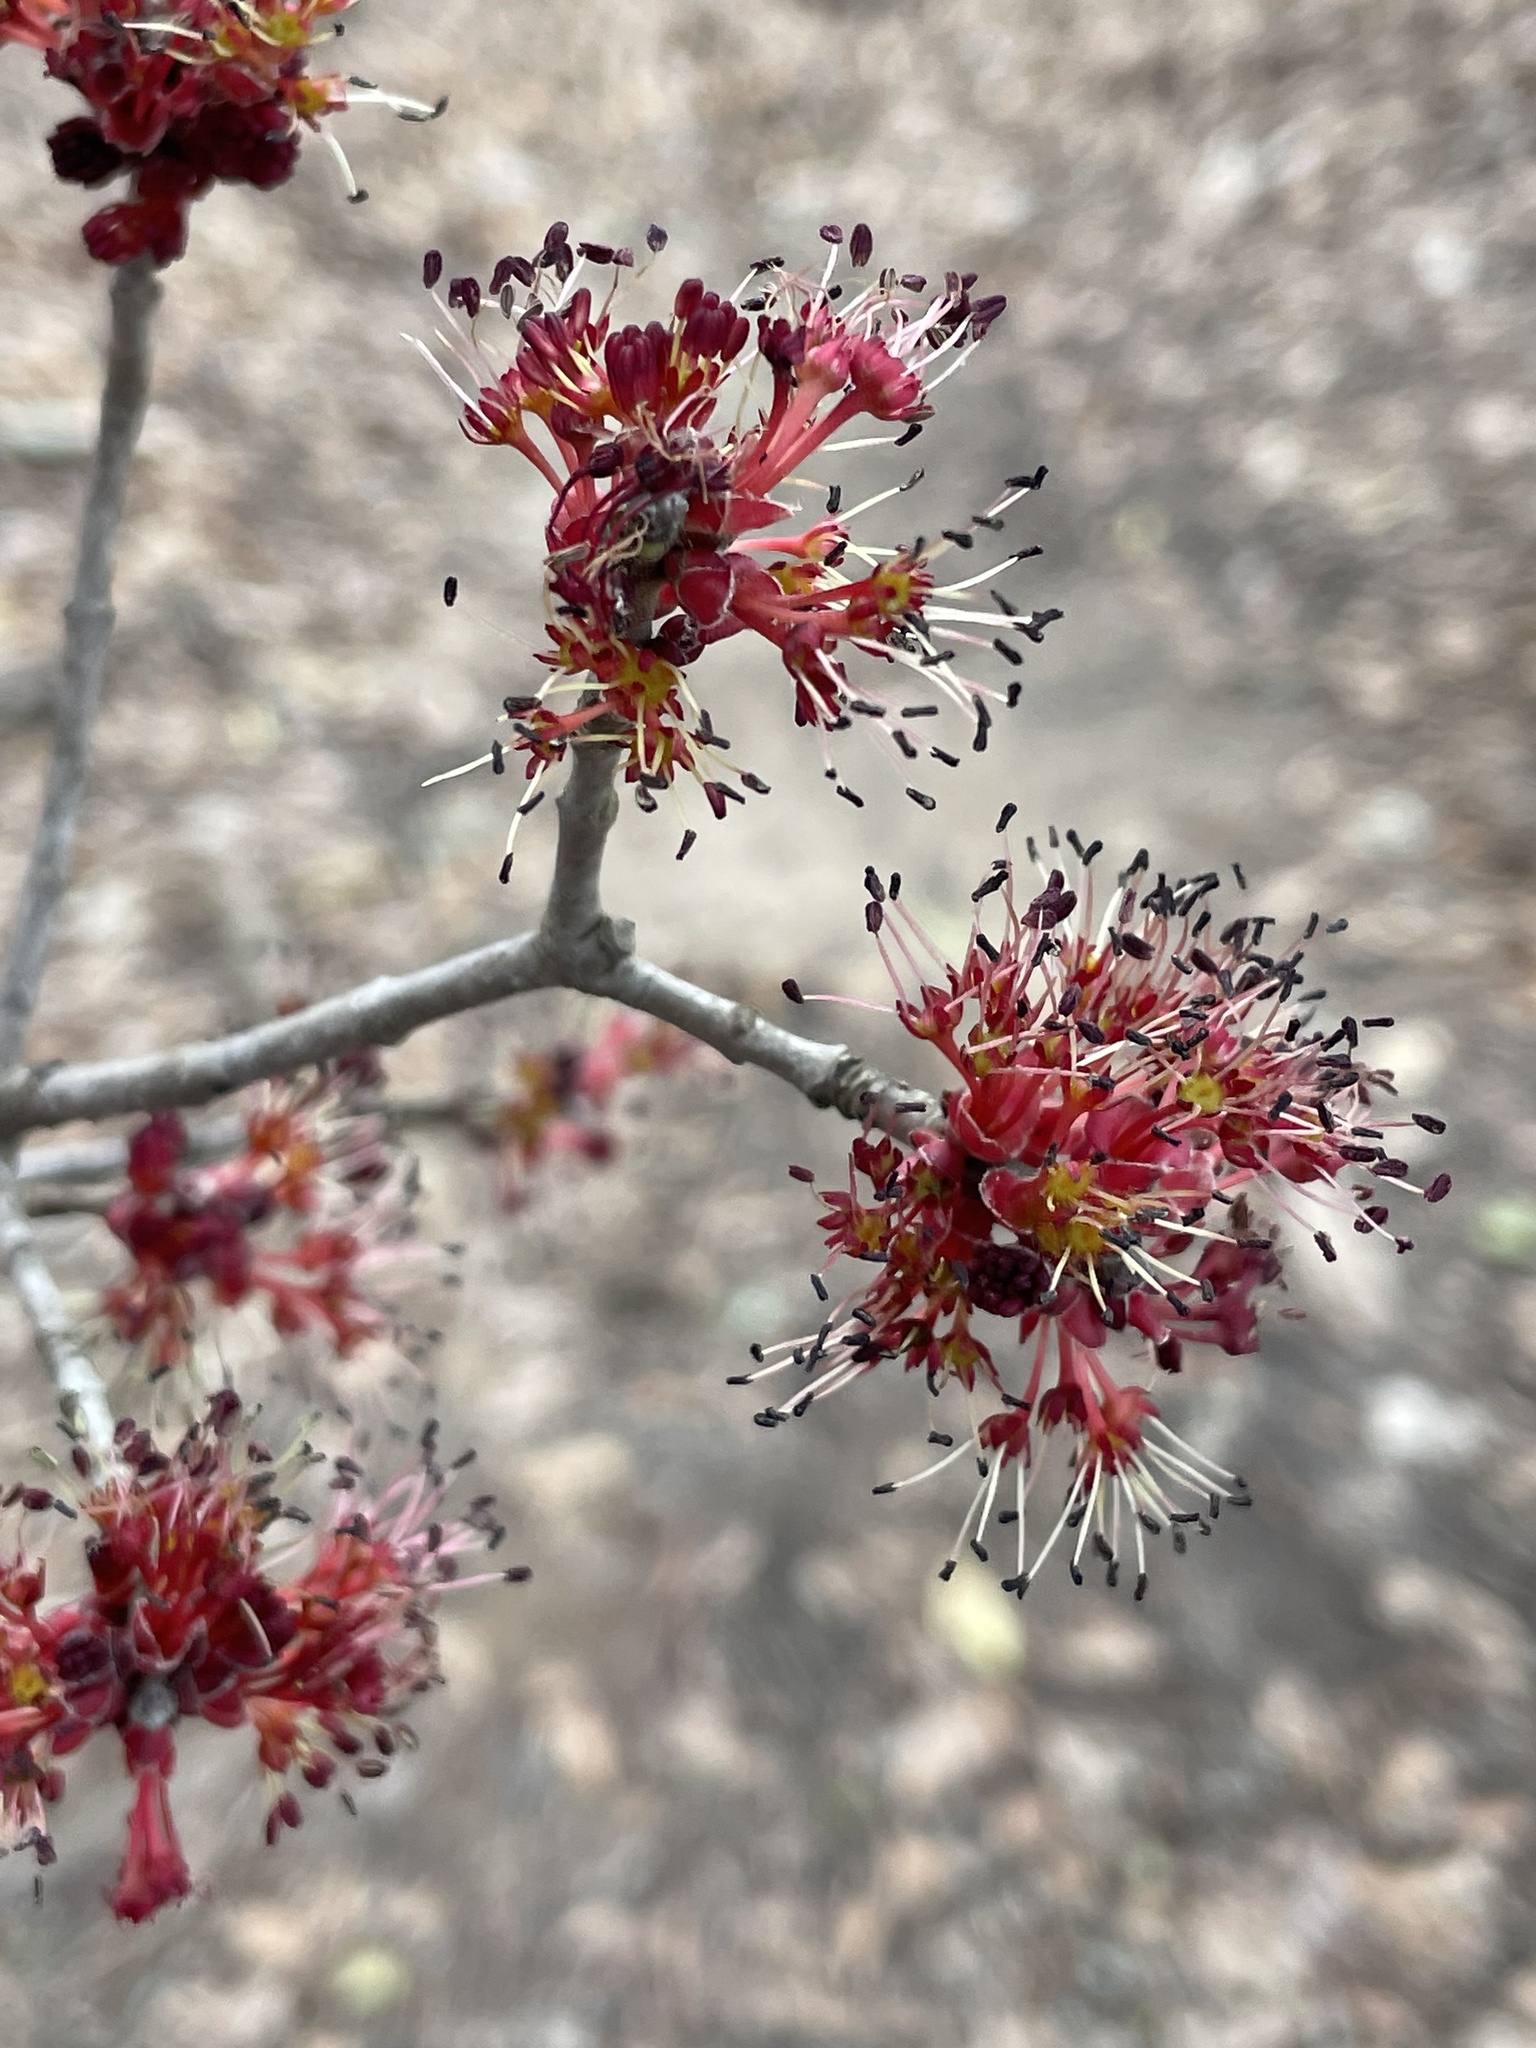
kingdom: Plantae
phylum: Tracheophyta
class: Magnoliopsida
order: Sapindales
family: Sapindaceae
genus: Acer
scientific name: Acer rubrum
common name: Red maple
